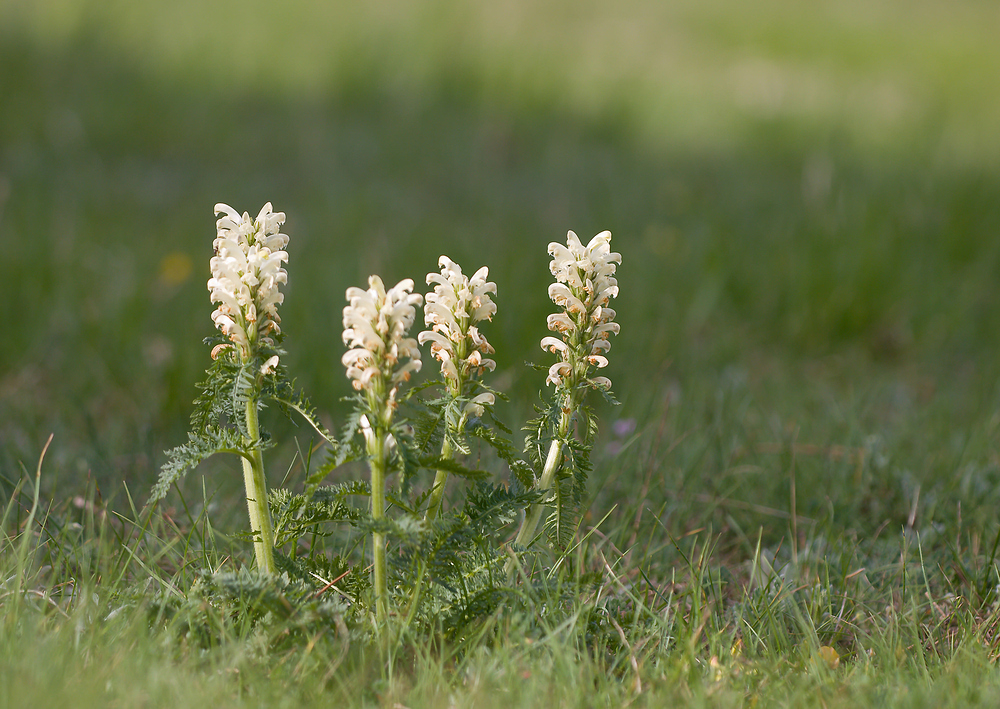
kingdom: Plantae
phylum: Tracheophyta
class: Magnoliopsida
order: Lamiales
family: Orobanchaceae
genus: Pedicularis
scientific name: Pedicularis comosa
